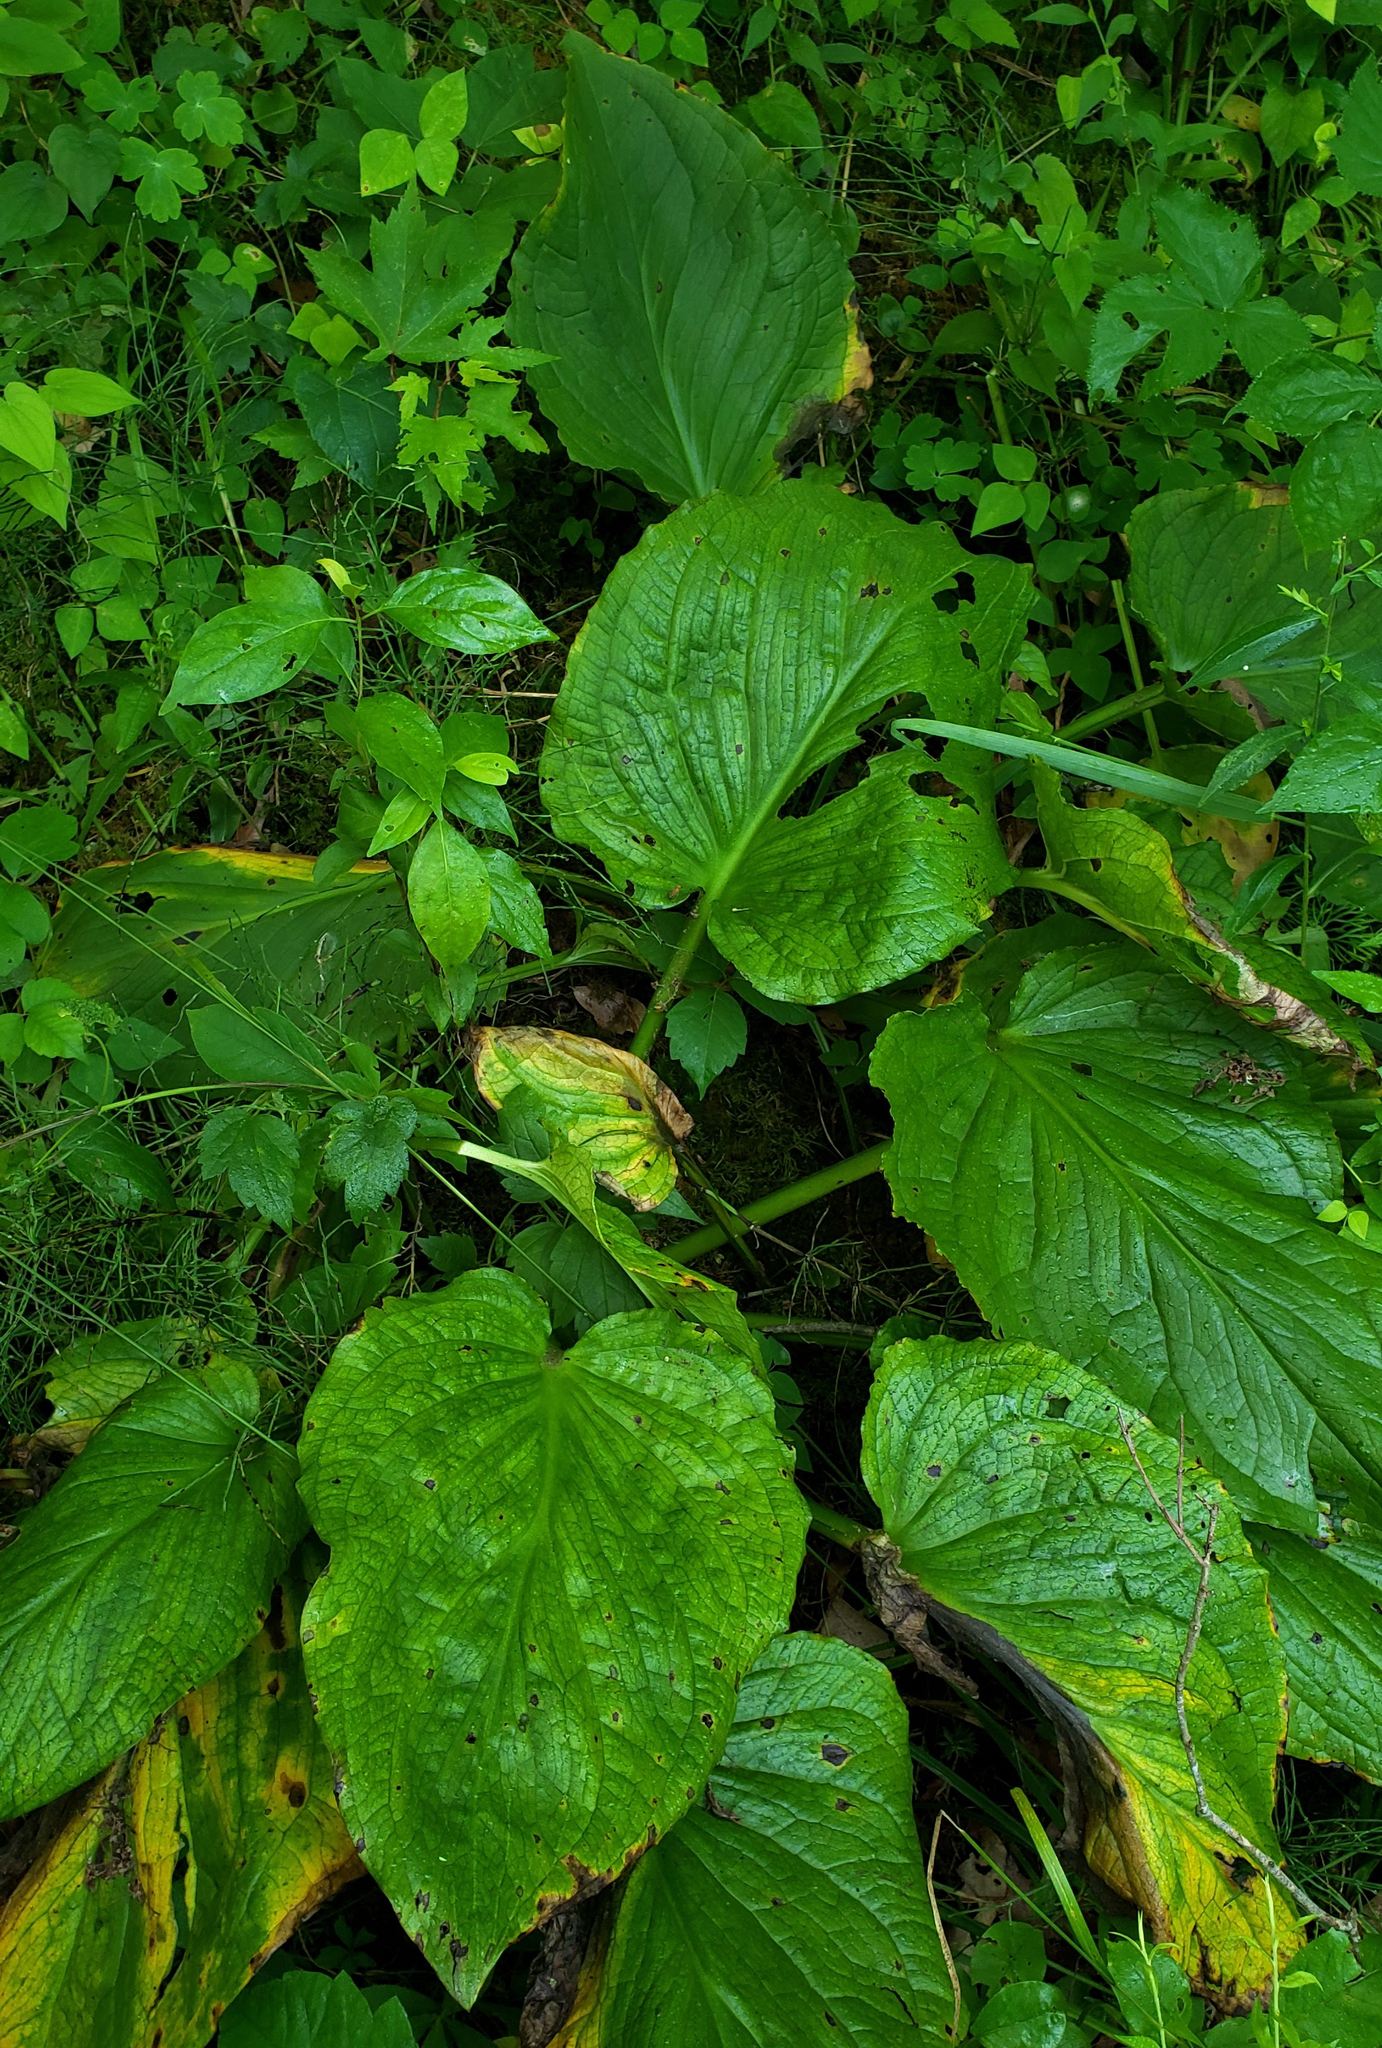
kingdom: Plantae
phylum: Tracheophyta
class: Liliopsida
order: Alismatales
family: Araceae
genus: Symplocarpus
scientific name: Symplocarpus foetidus
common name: Eastern skunk cabbage
